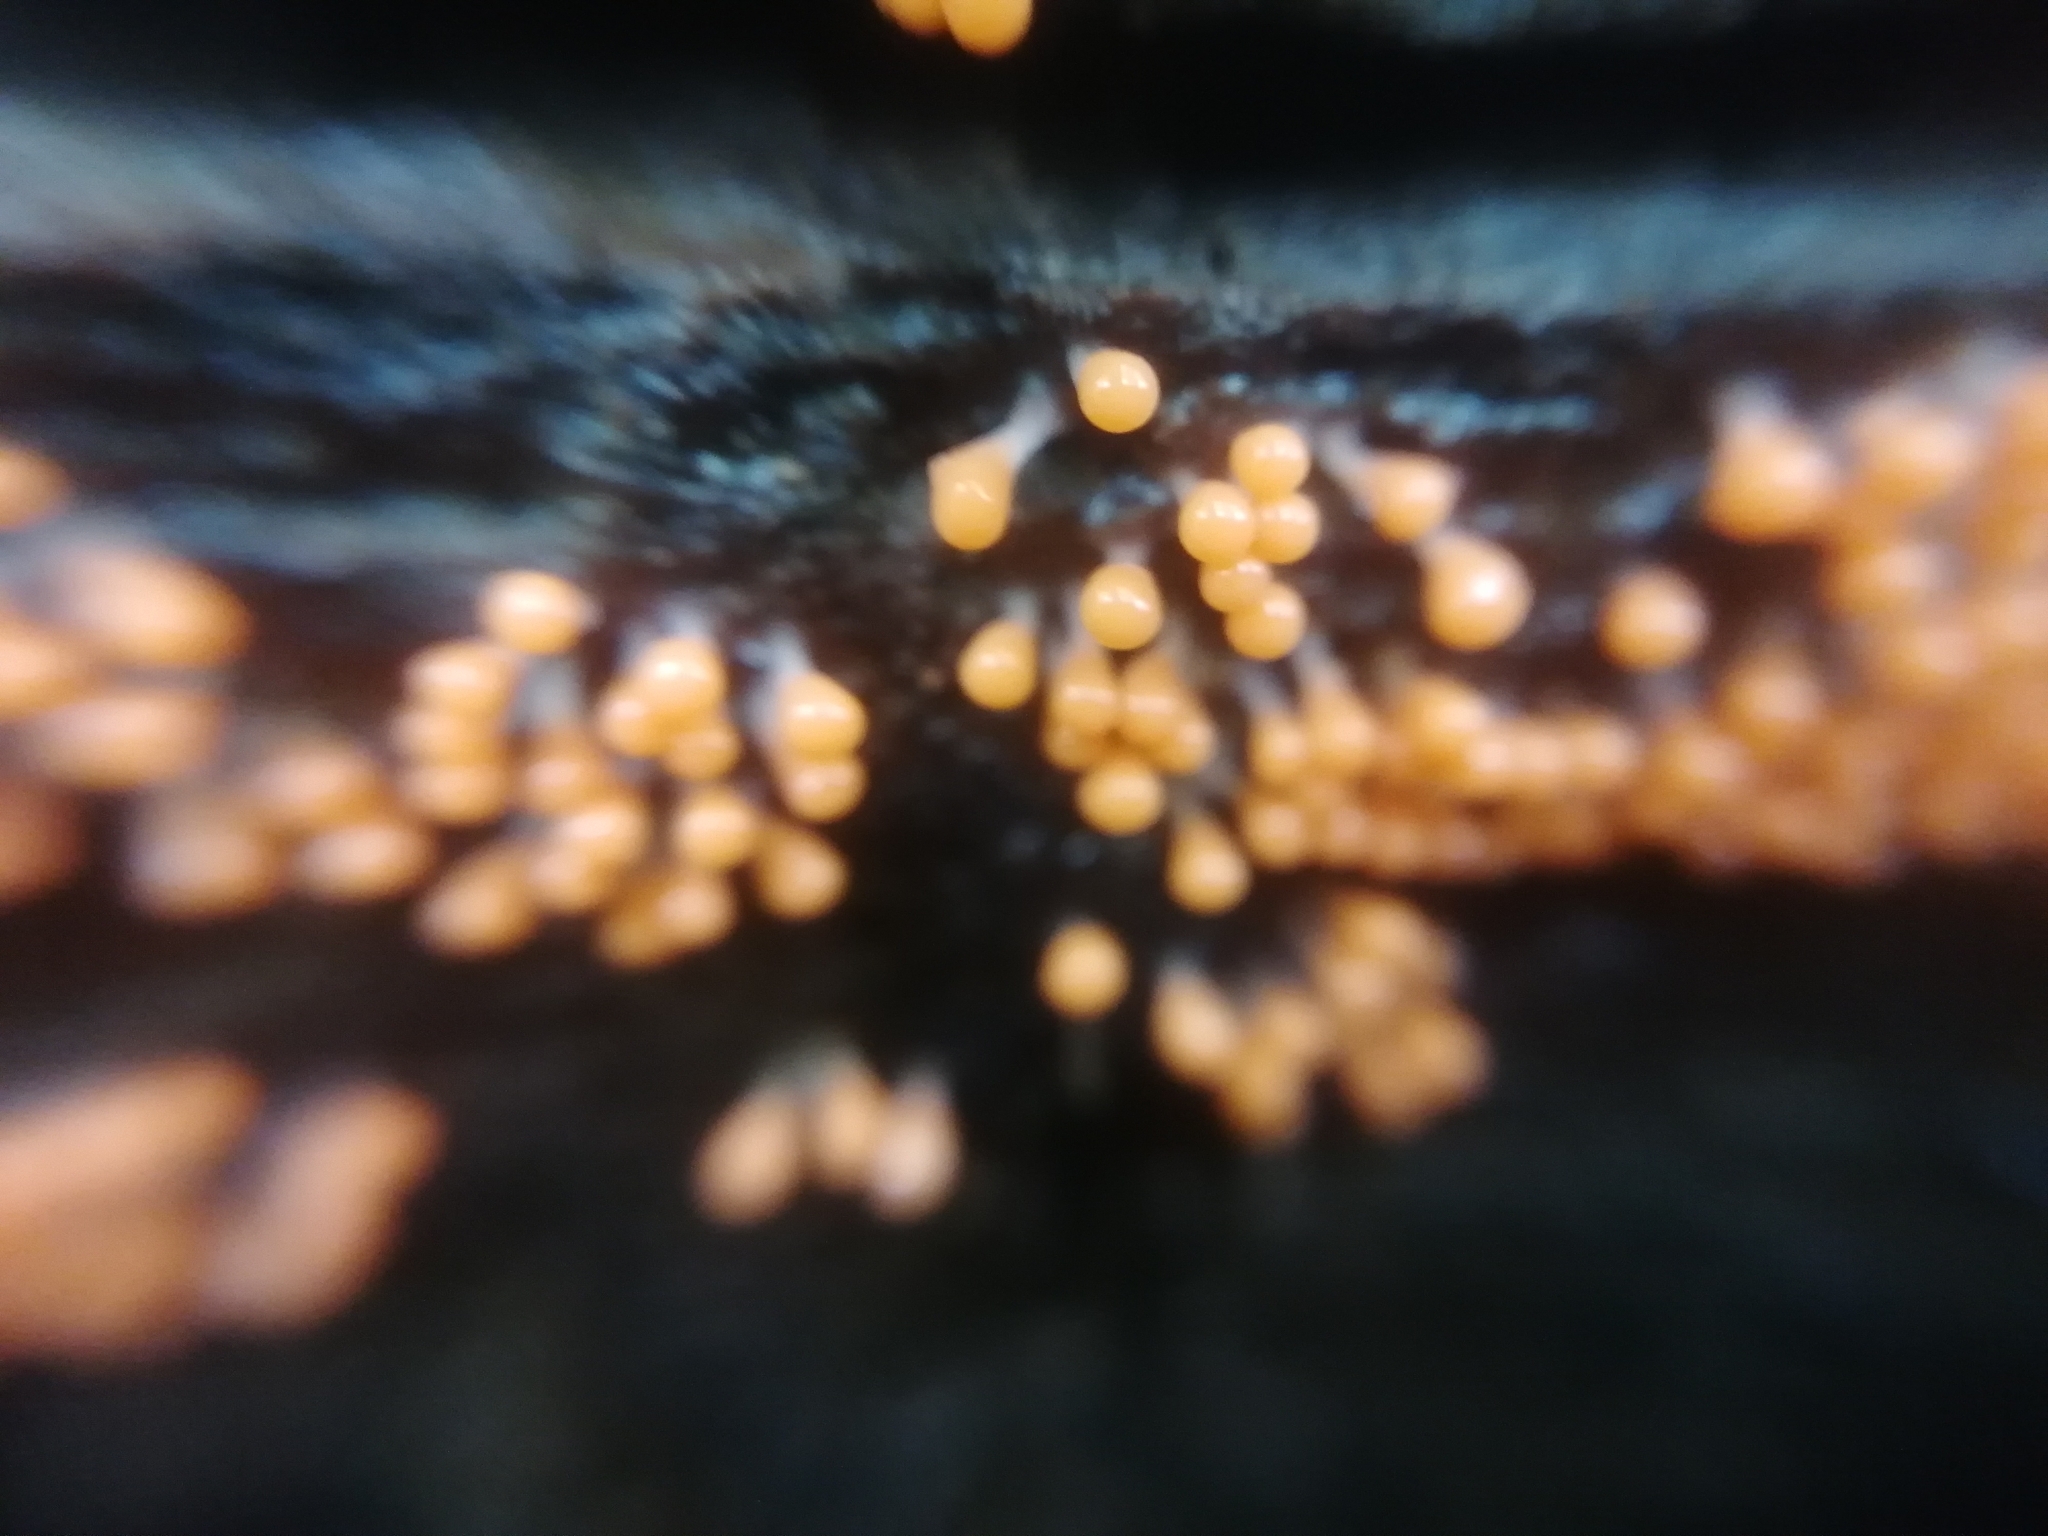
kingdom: Protozoa
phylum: Mycetozoa
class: Myxomycetes
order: Trichiales
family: Arcyriaceae
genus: Hemitrichia
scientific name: Hemitrichia decipiens
